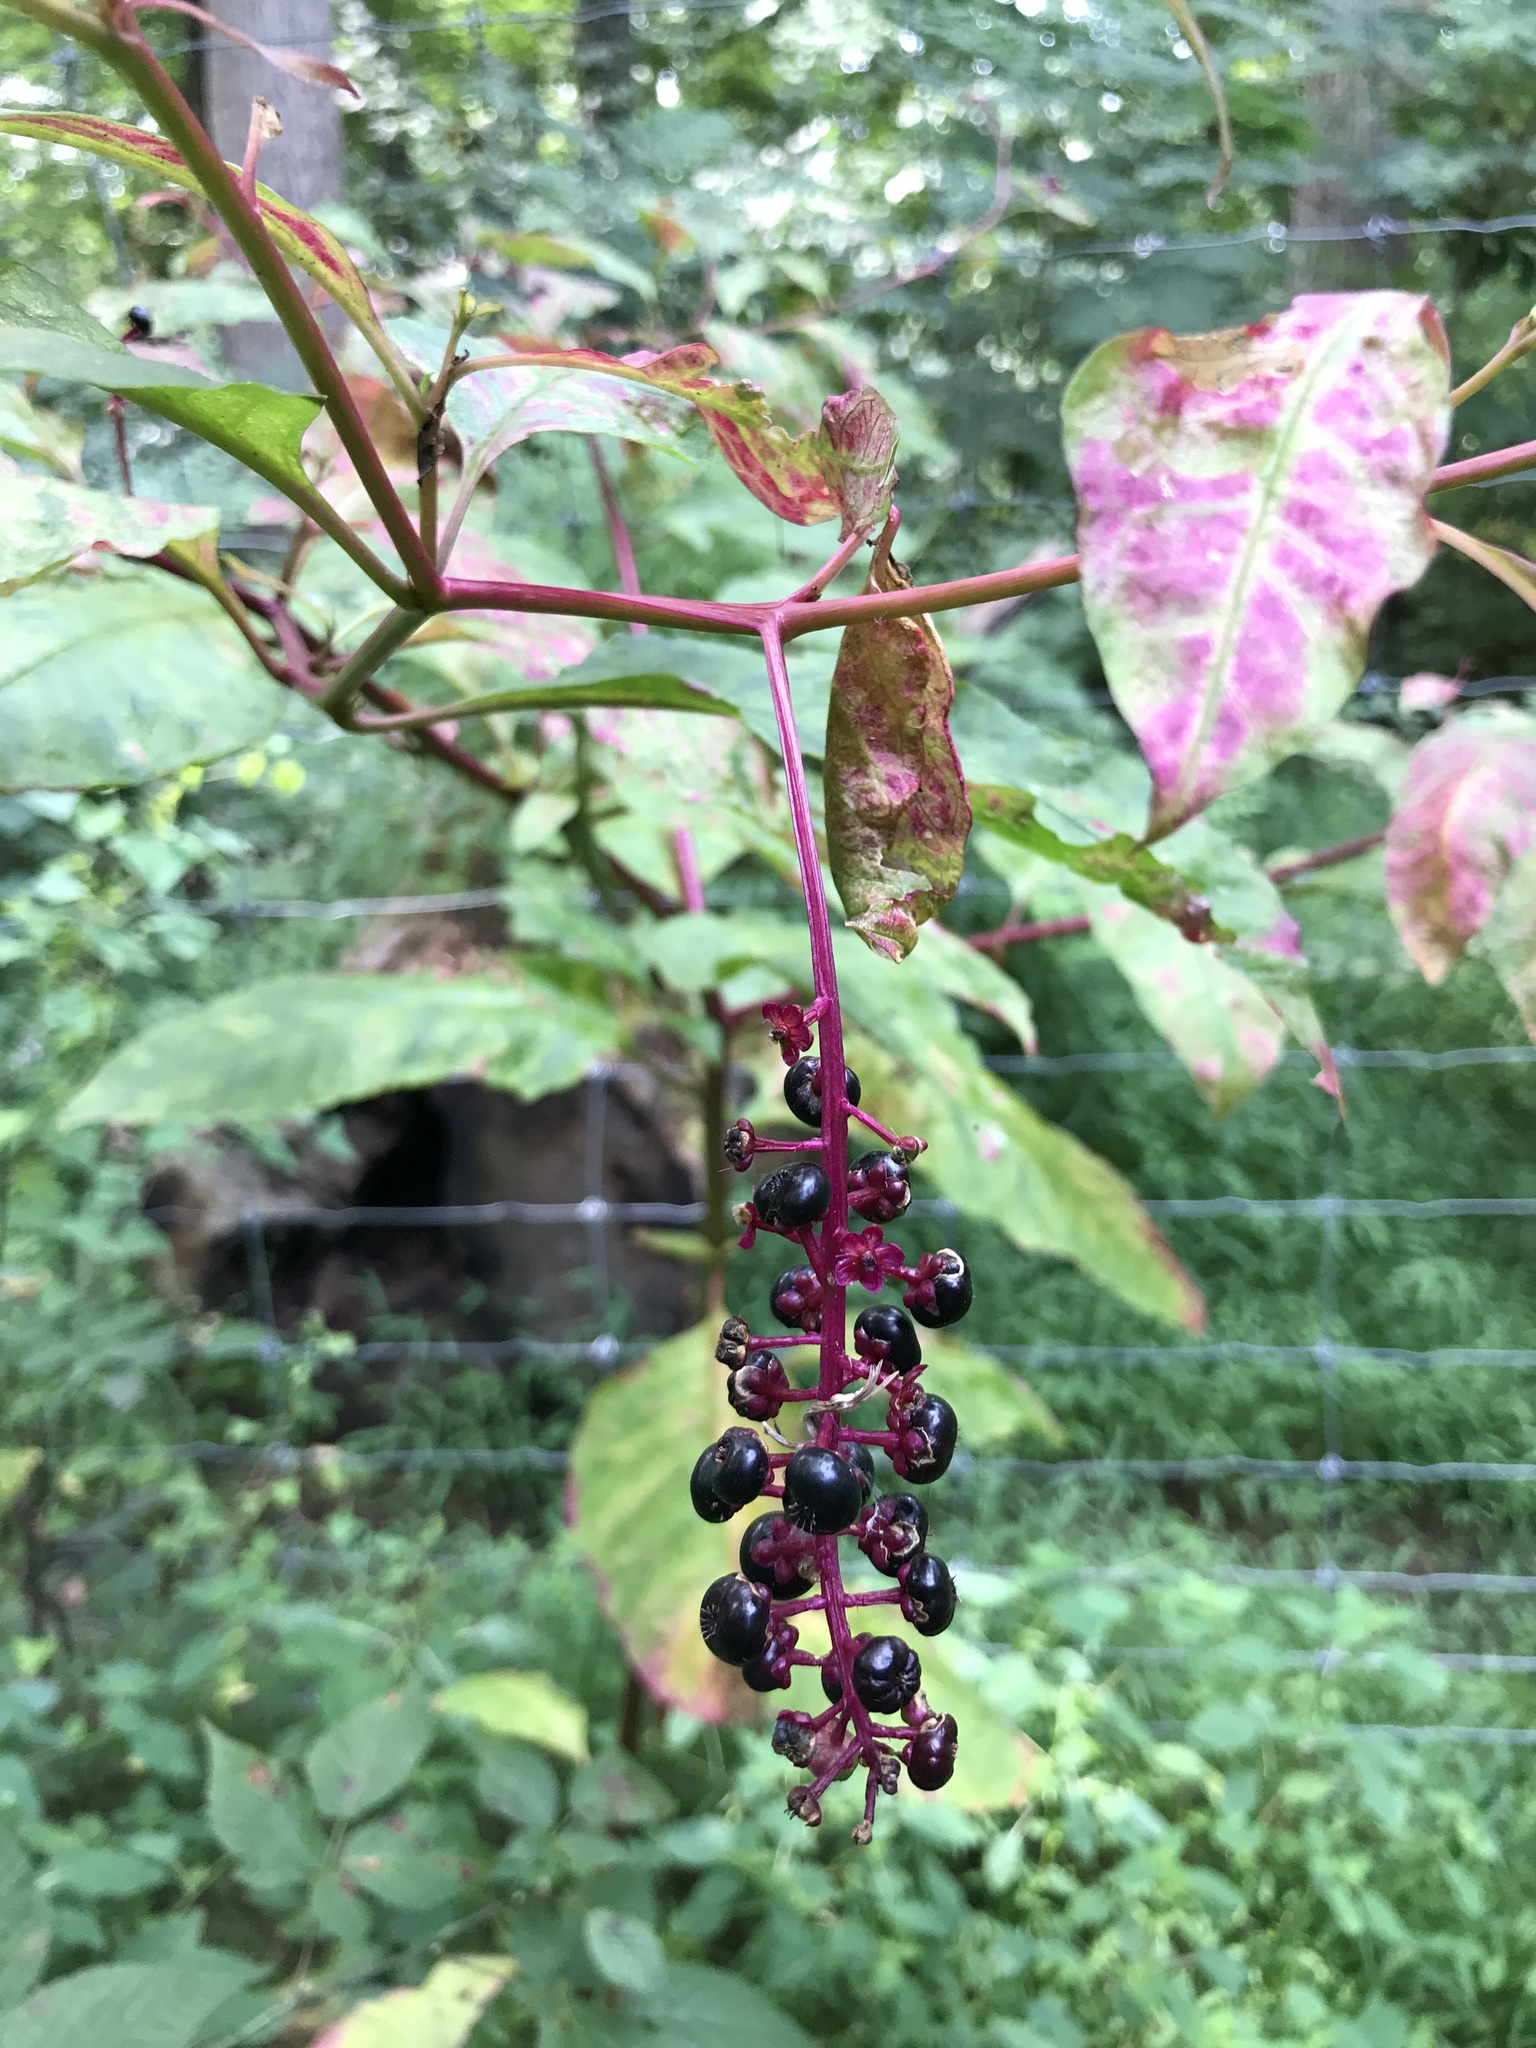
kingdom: Plantae
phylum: Tracheophyta
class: Magnoliopsida
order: Caryophyllales
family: Phytolaccaceae
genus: Phytolacca
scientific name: Phytolacca americana
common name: American pokeweed
